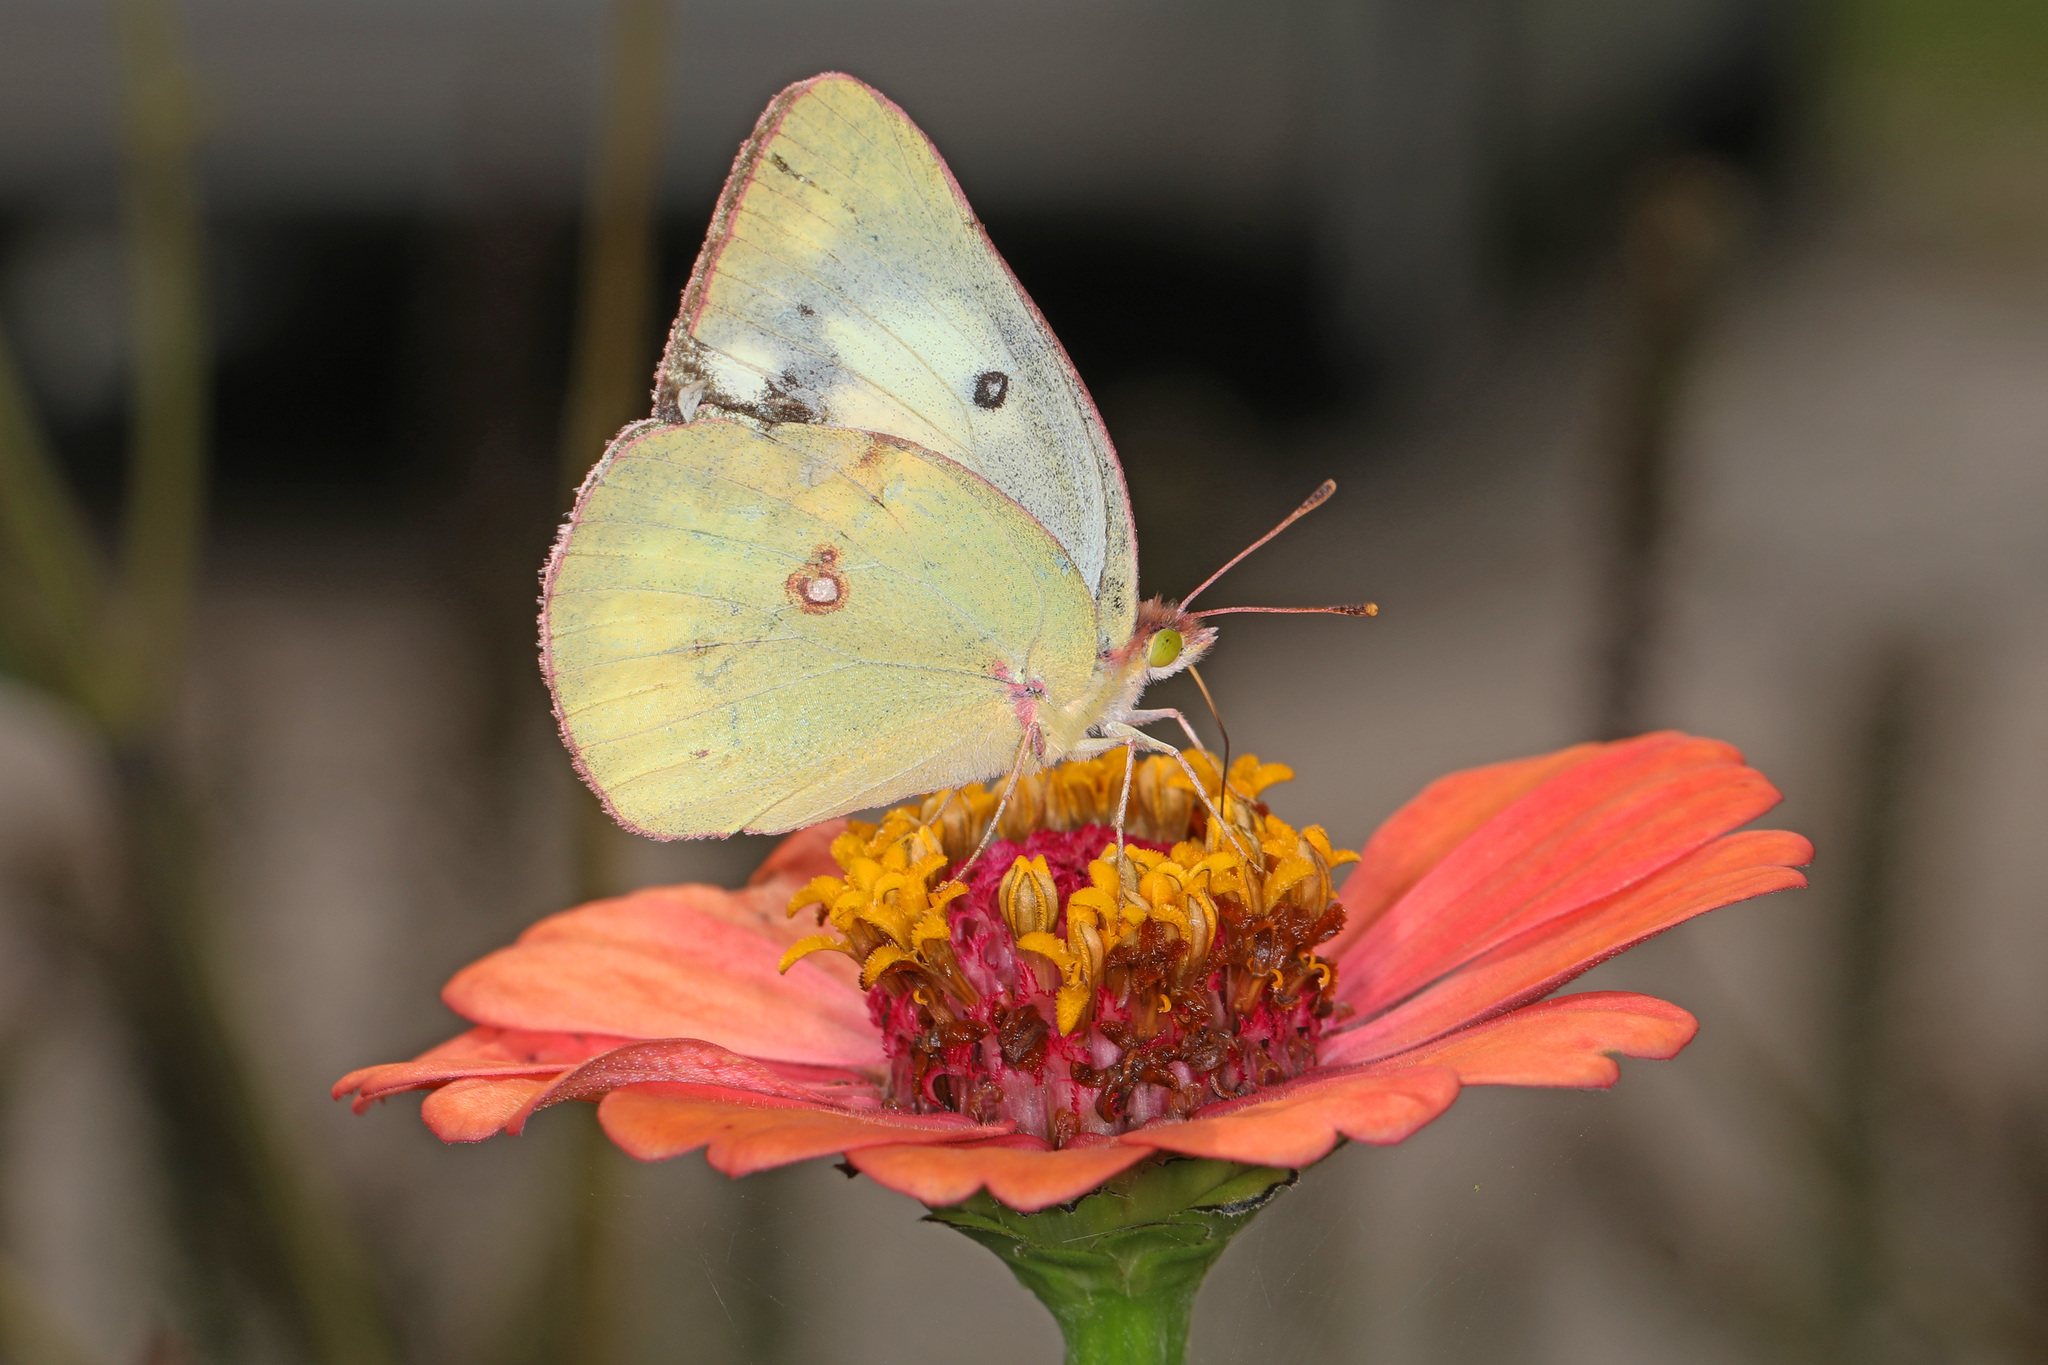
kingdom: Animalia
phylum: Arthropoda
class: Insecta
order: Lepidoptera
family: Pieridae
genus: Colias
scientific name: Colias eurytheme
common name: Alfalfa butterfly
